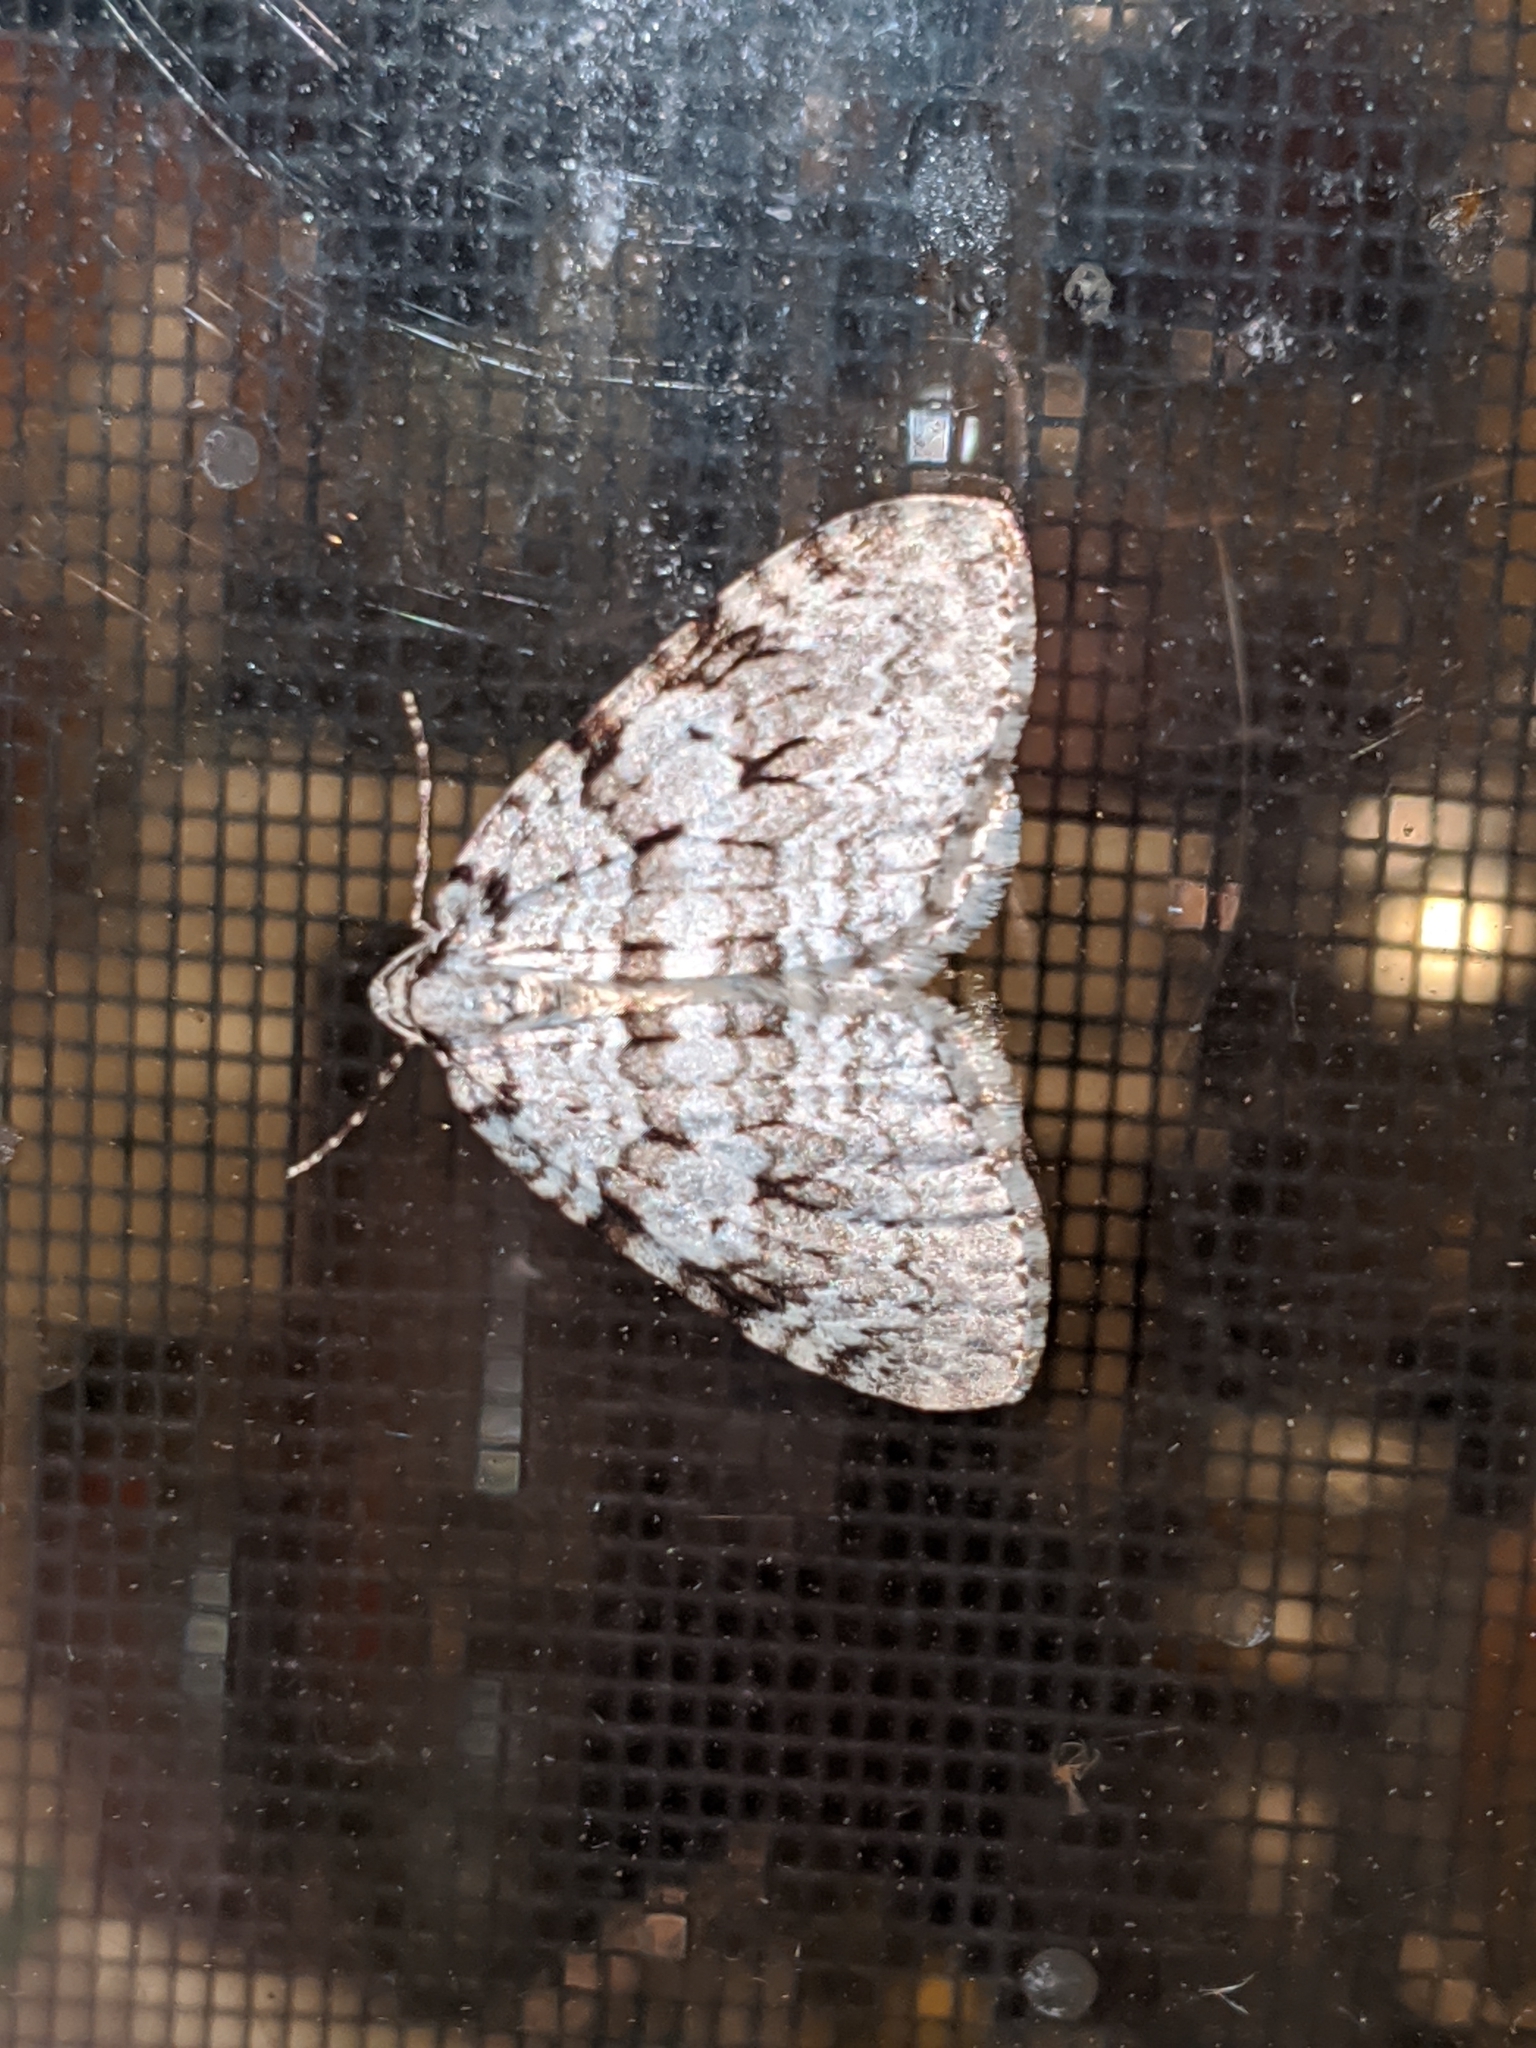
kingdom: Animalia
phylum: Arthropoda
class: Insecta
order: Lepidoptera
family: Geometridae
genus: Epirrita
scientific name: Epirrita autumnata
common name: Autumnal moth
